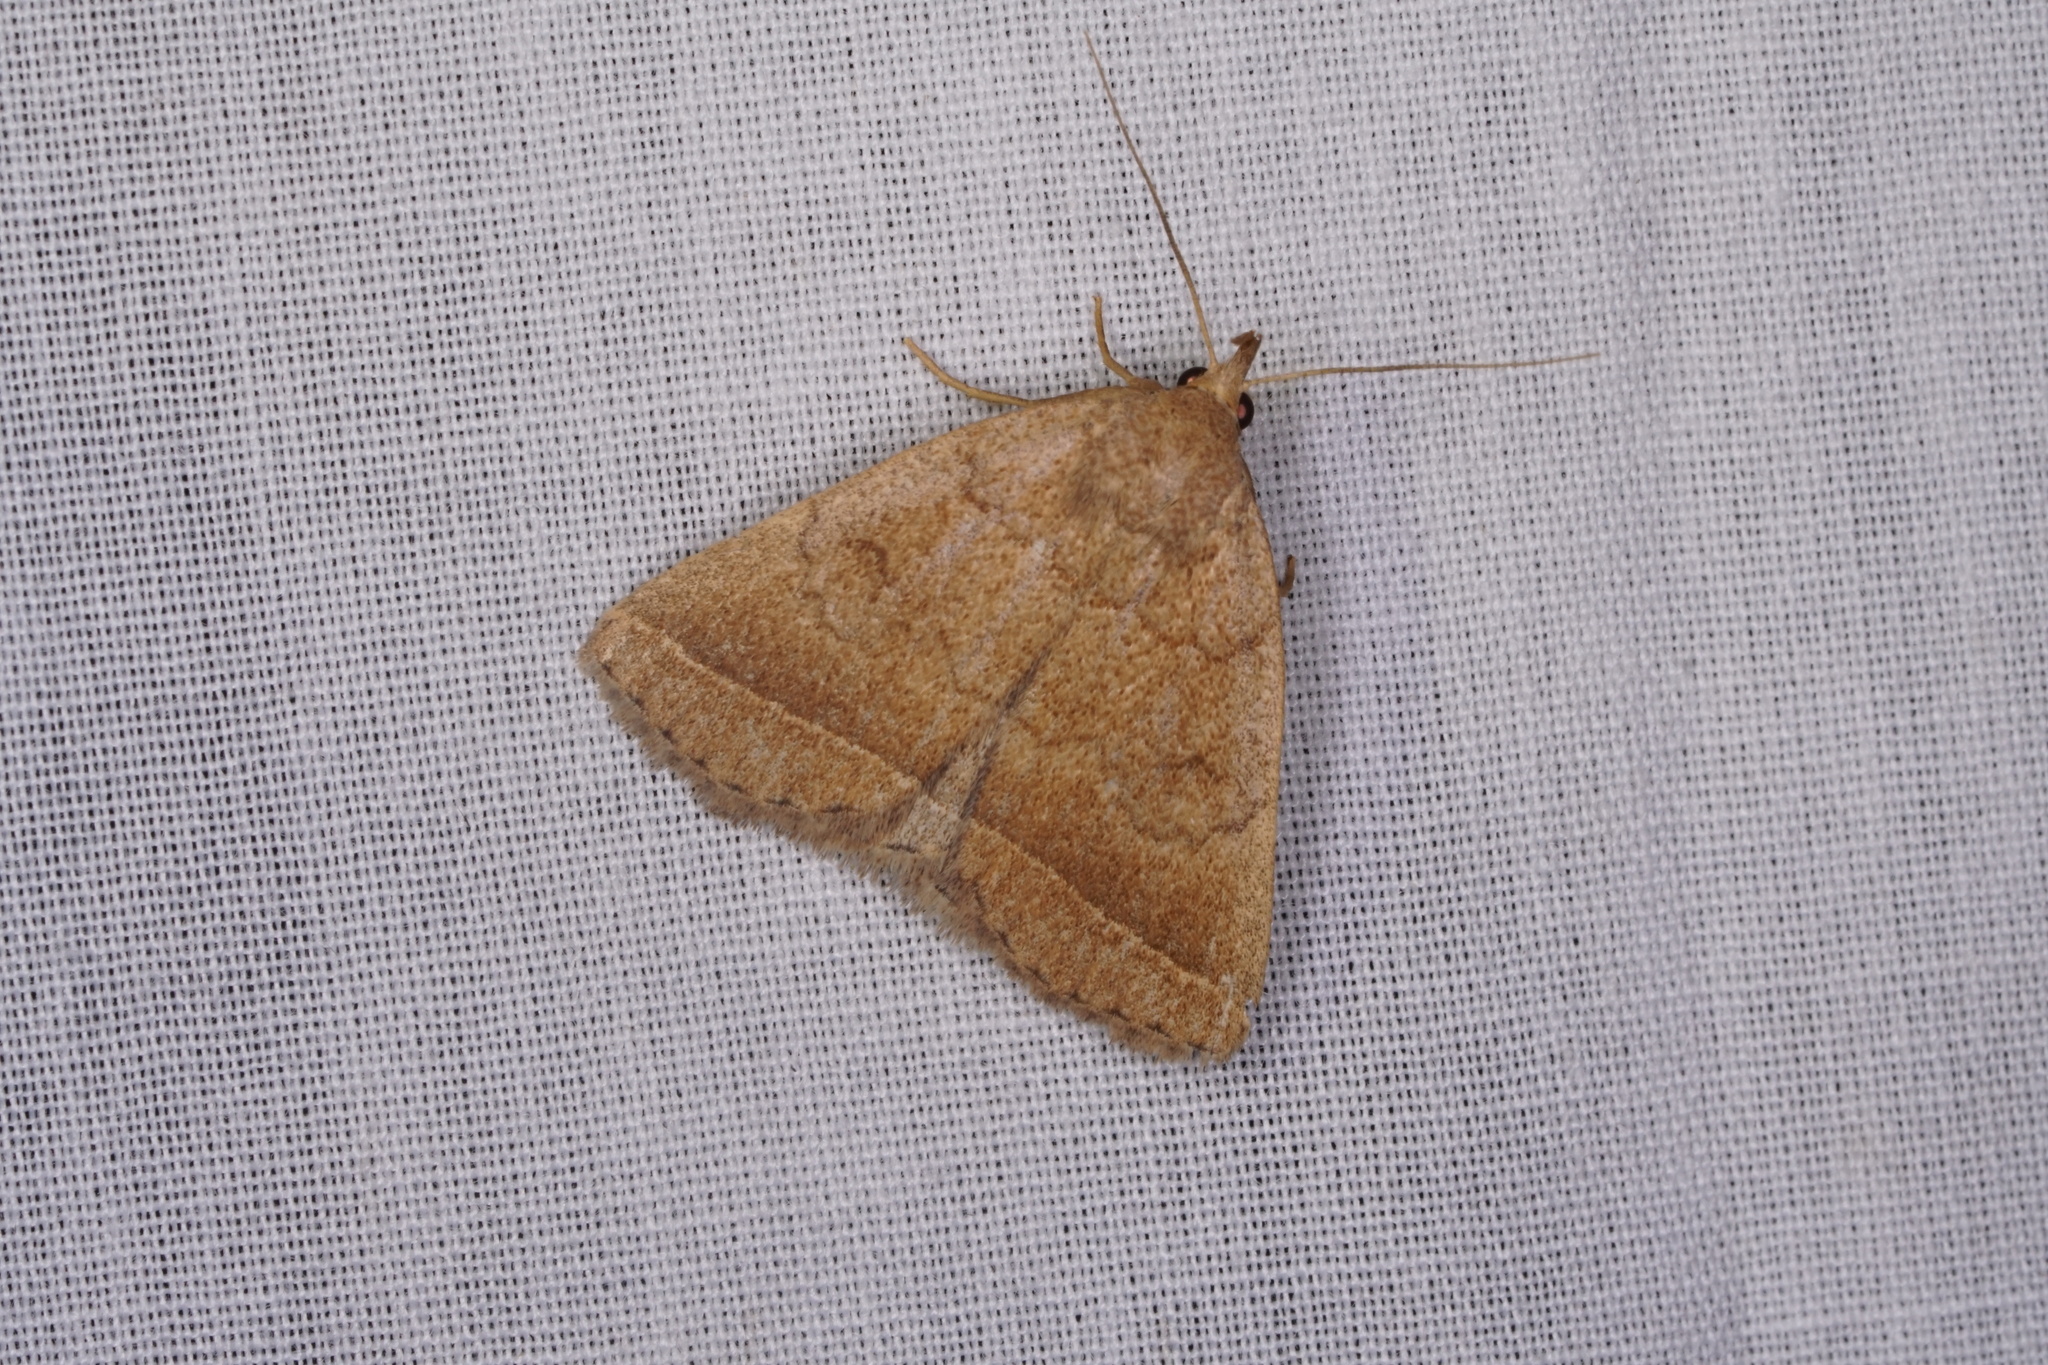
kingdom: Animalia
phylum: Arthropoda
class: Insecta
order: Lepidoptera
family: Erebidae
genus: Zanclognatha
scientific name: Zanclognatha jacchusalis
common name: Yellowish zanclognatha
